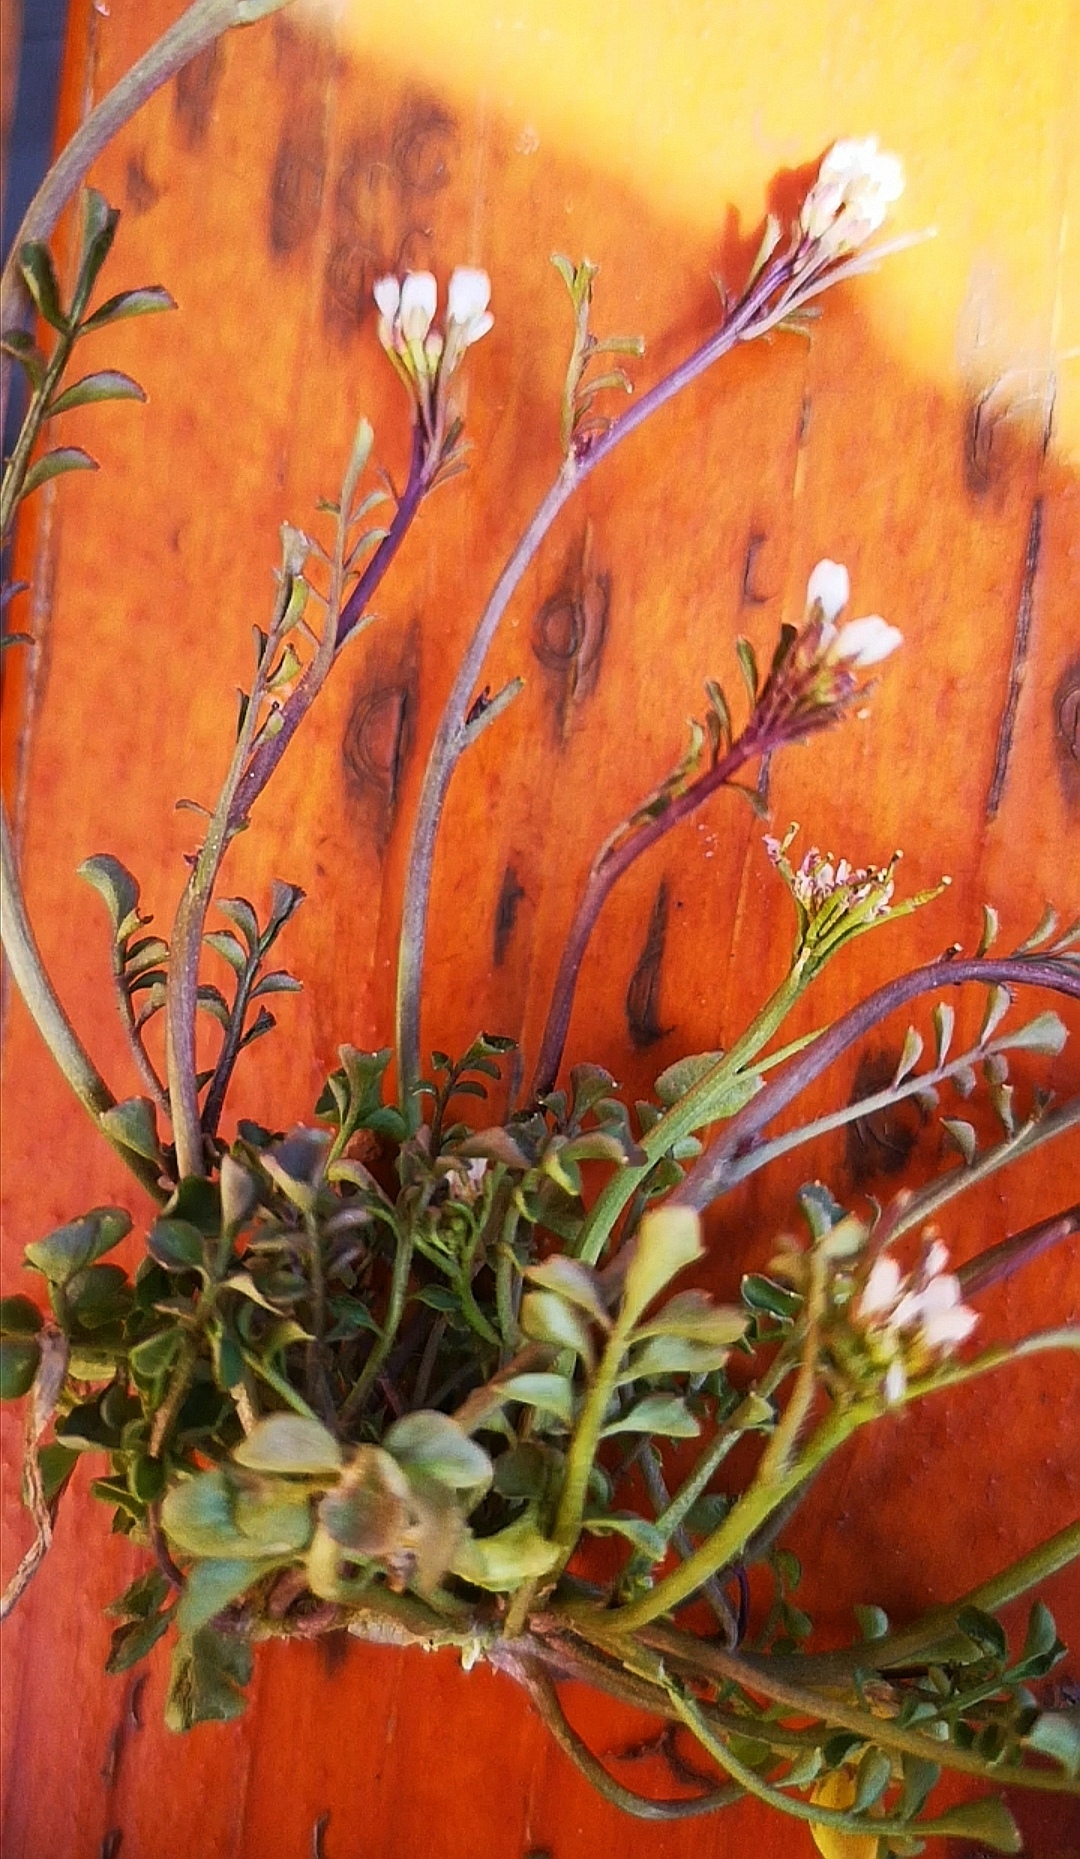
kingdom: Plantae
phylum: Tracheophyta
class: Magnoliopsida
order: Brassicales
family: Brassicaceae
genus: Cardamine
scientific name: Cardamine hirsuta
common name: Hairy bittercress
